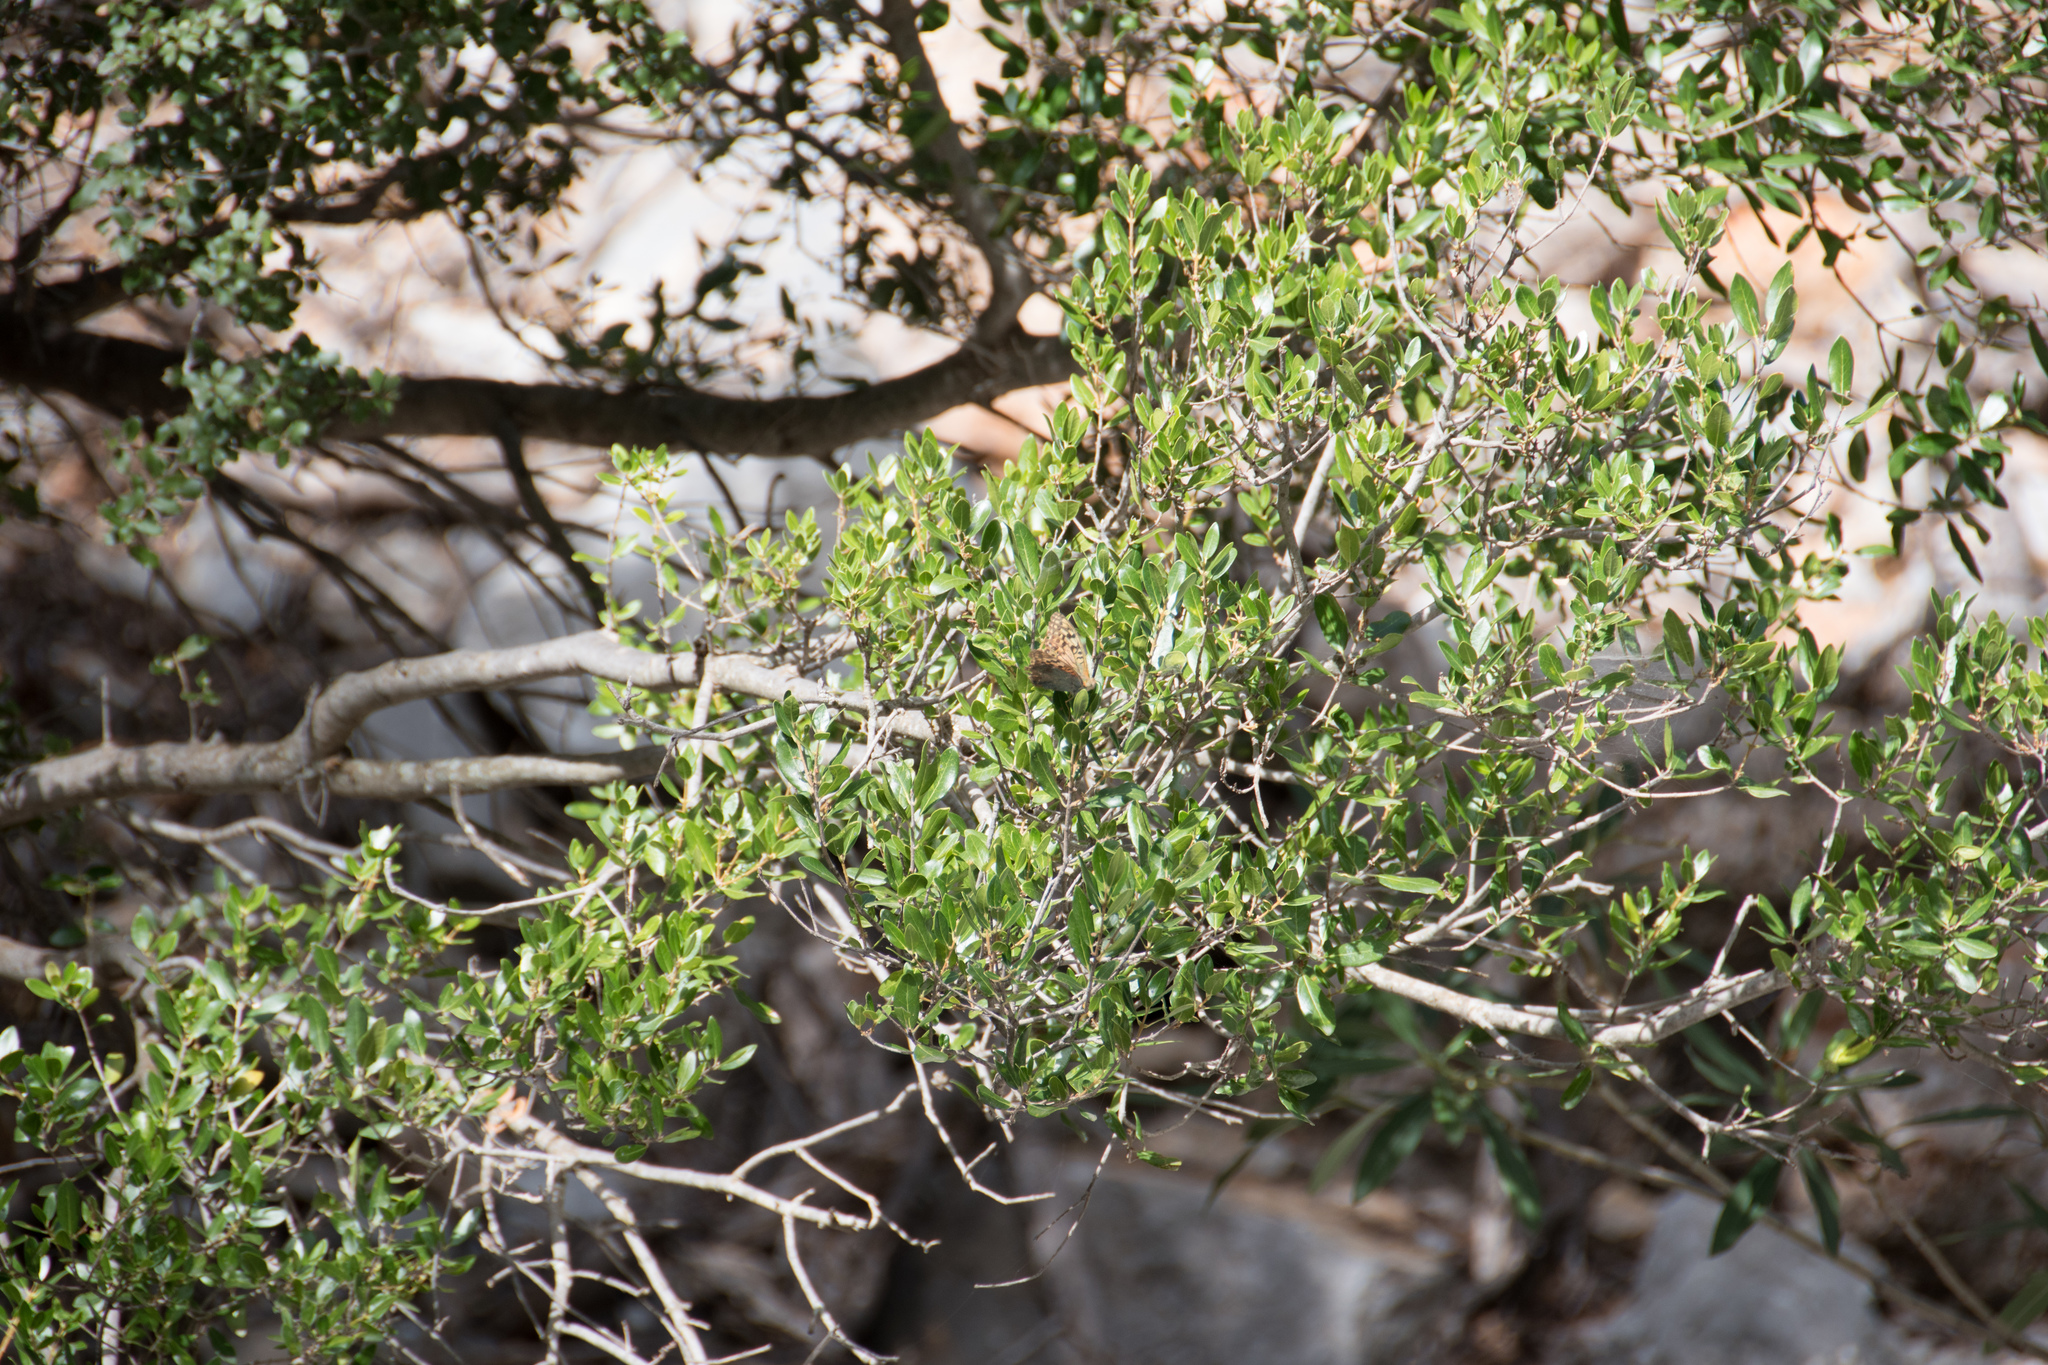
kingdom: Animalia
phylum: Arthropoda
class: Insecta
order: Lepidoptera
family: Nymphalidae
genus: Damora
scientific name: Damora pandora
